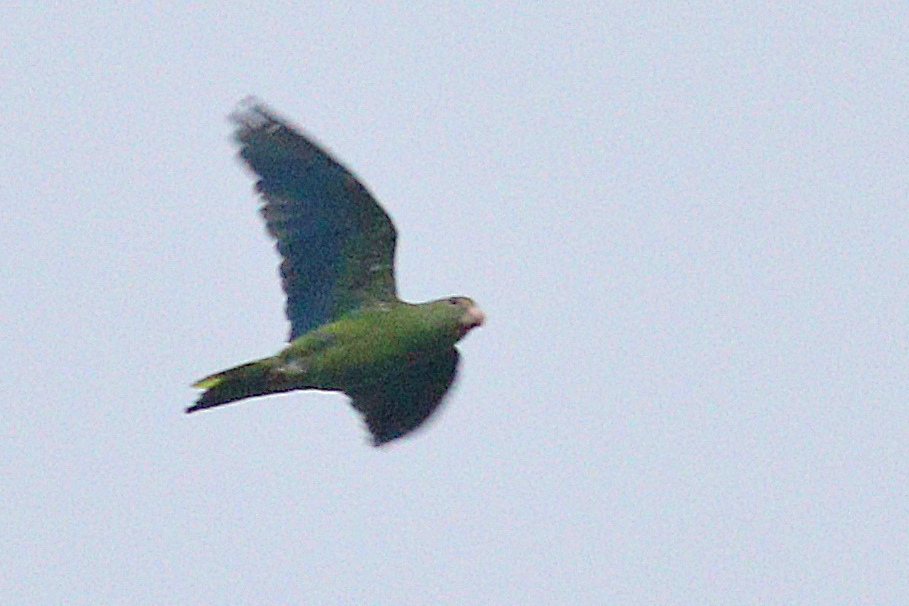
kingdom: Animalia
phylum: Chordata
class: Aves
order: Psittaciformes
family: Psittacidae
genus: Brotogeris
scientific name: Brotogeris cyanoptera
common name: Cobalt-winged parakeet
